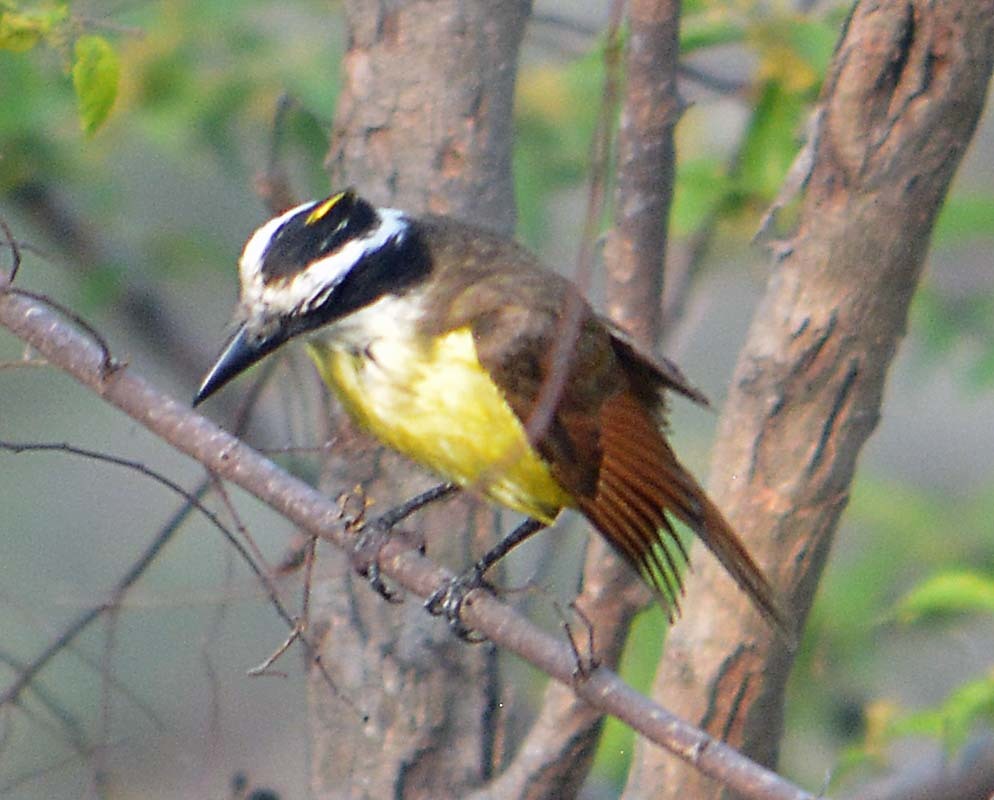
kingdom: Animalia
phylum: Chordata
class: Aves
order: Passeriformes
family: Tyrannidae
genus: Pitangus
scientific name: Pitangus sulphuratus
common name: Great kiskadee
